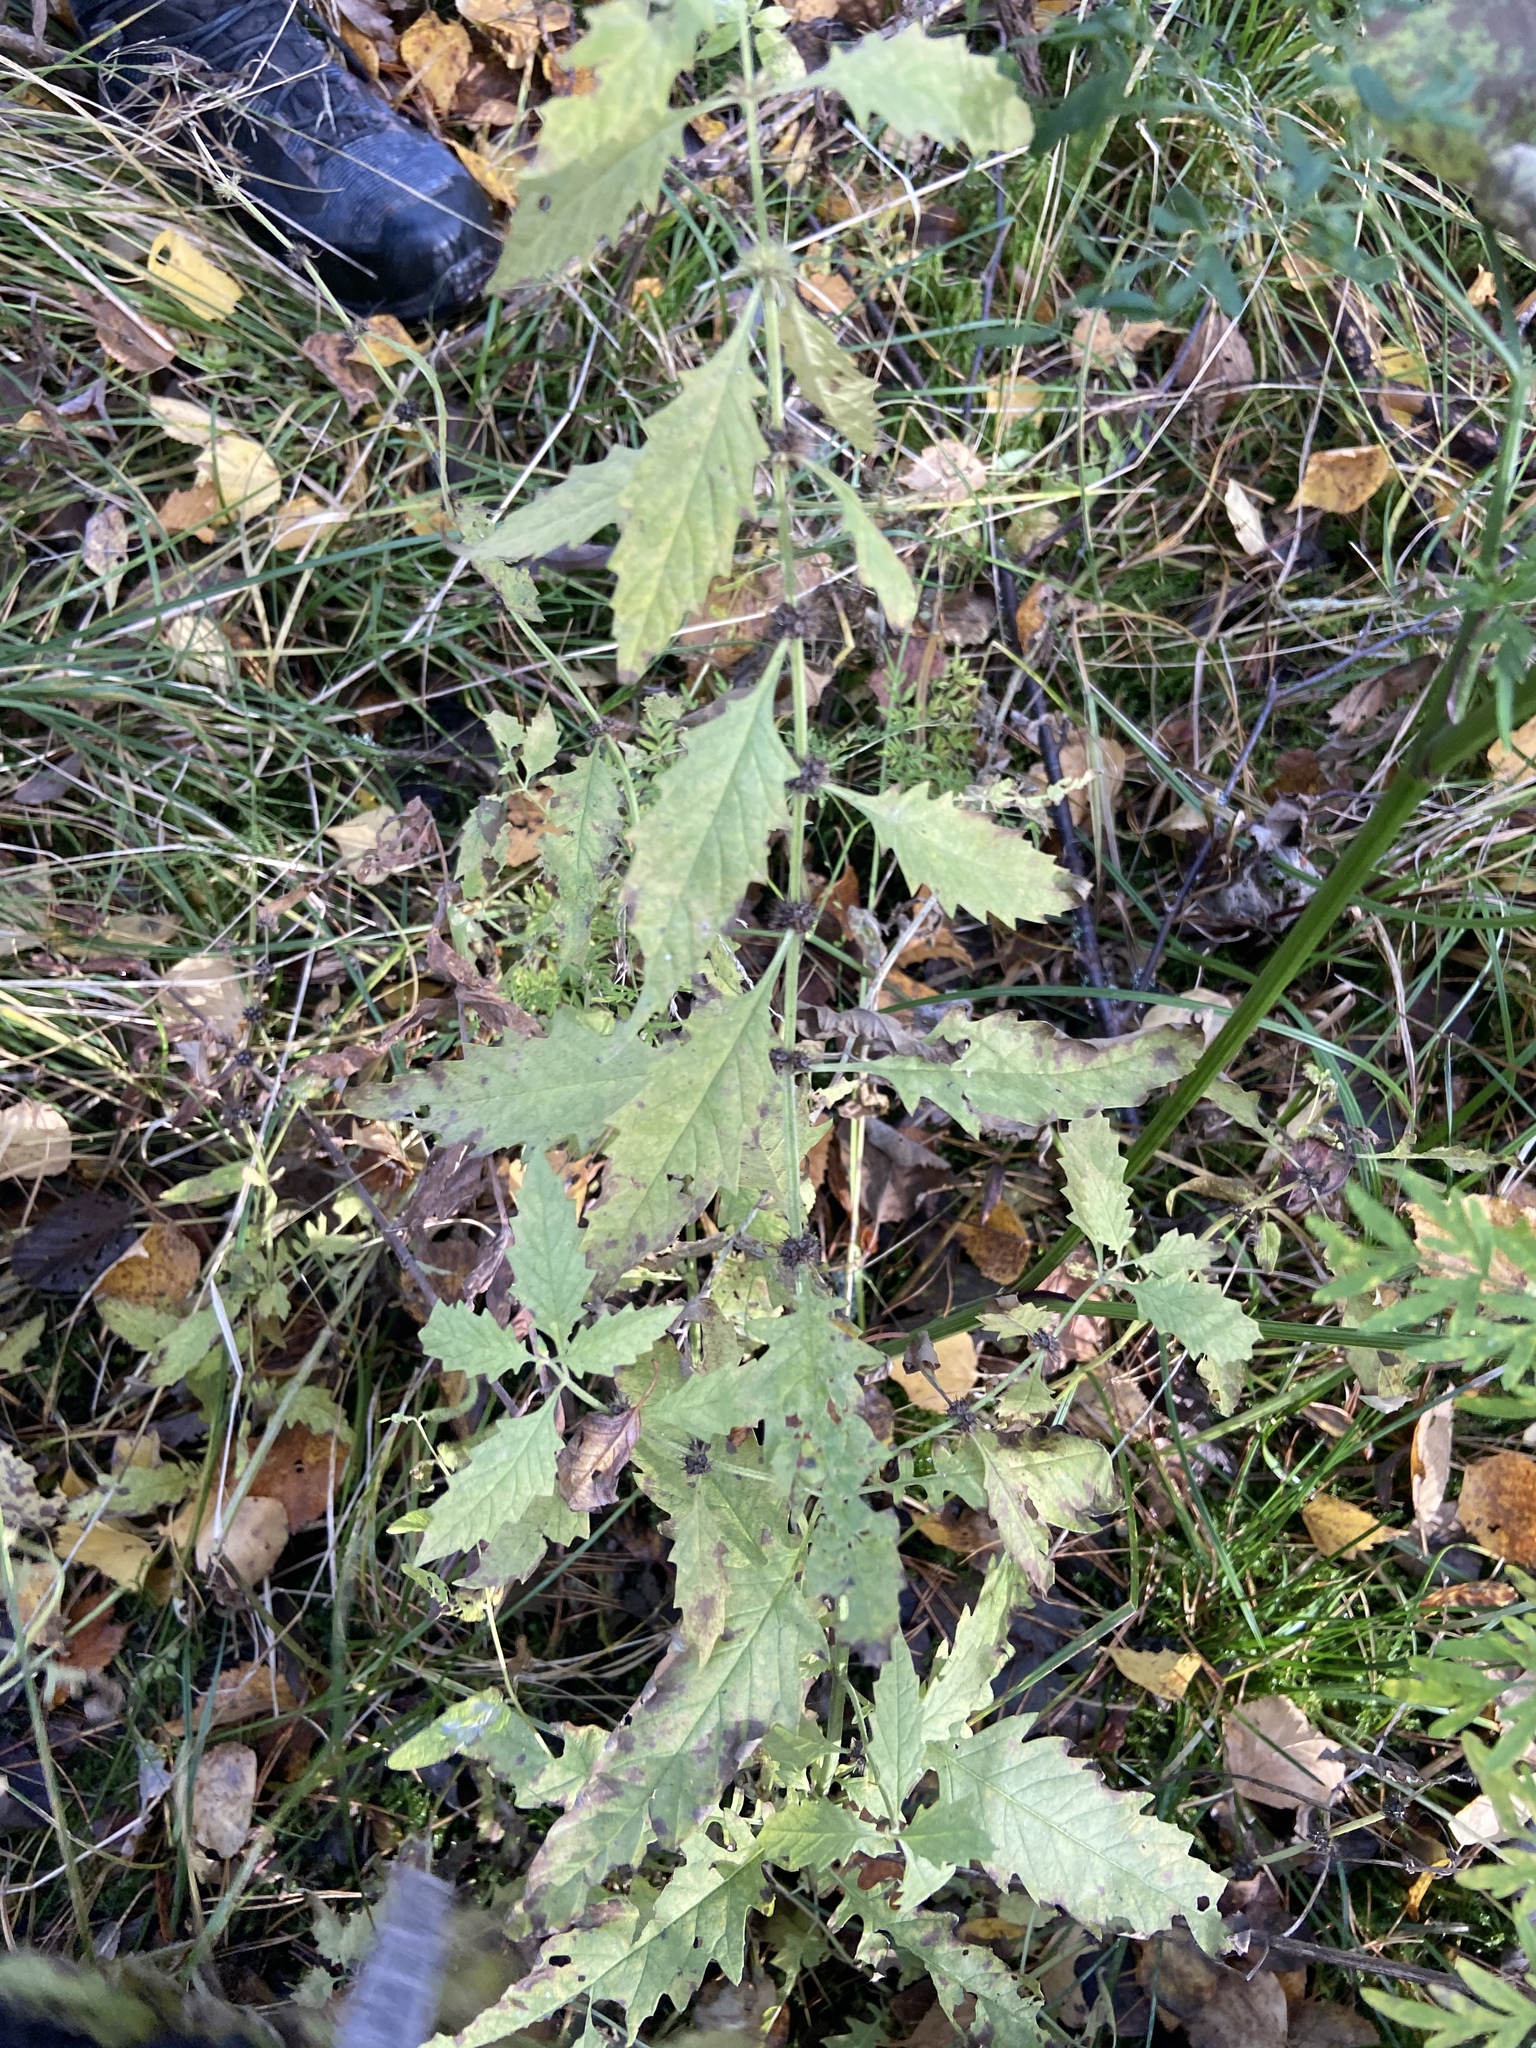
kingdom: Plantae
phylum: Tracheophyta
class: Magnoliopsida
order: Lamiales
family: Lamiaceae
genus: Lycopus
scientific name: Lycopus europaeus
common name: European bugleweed
